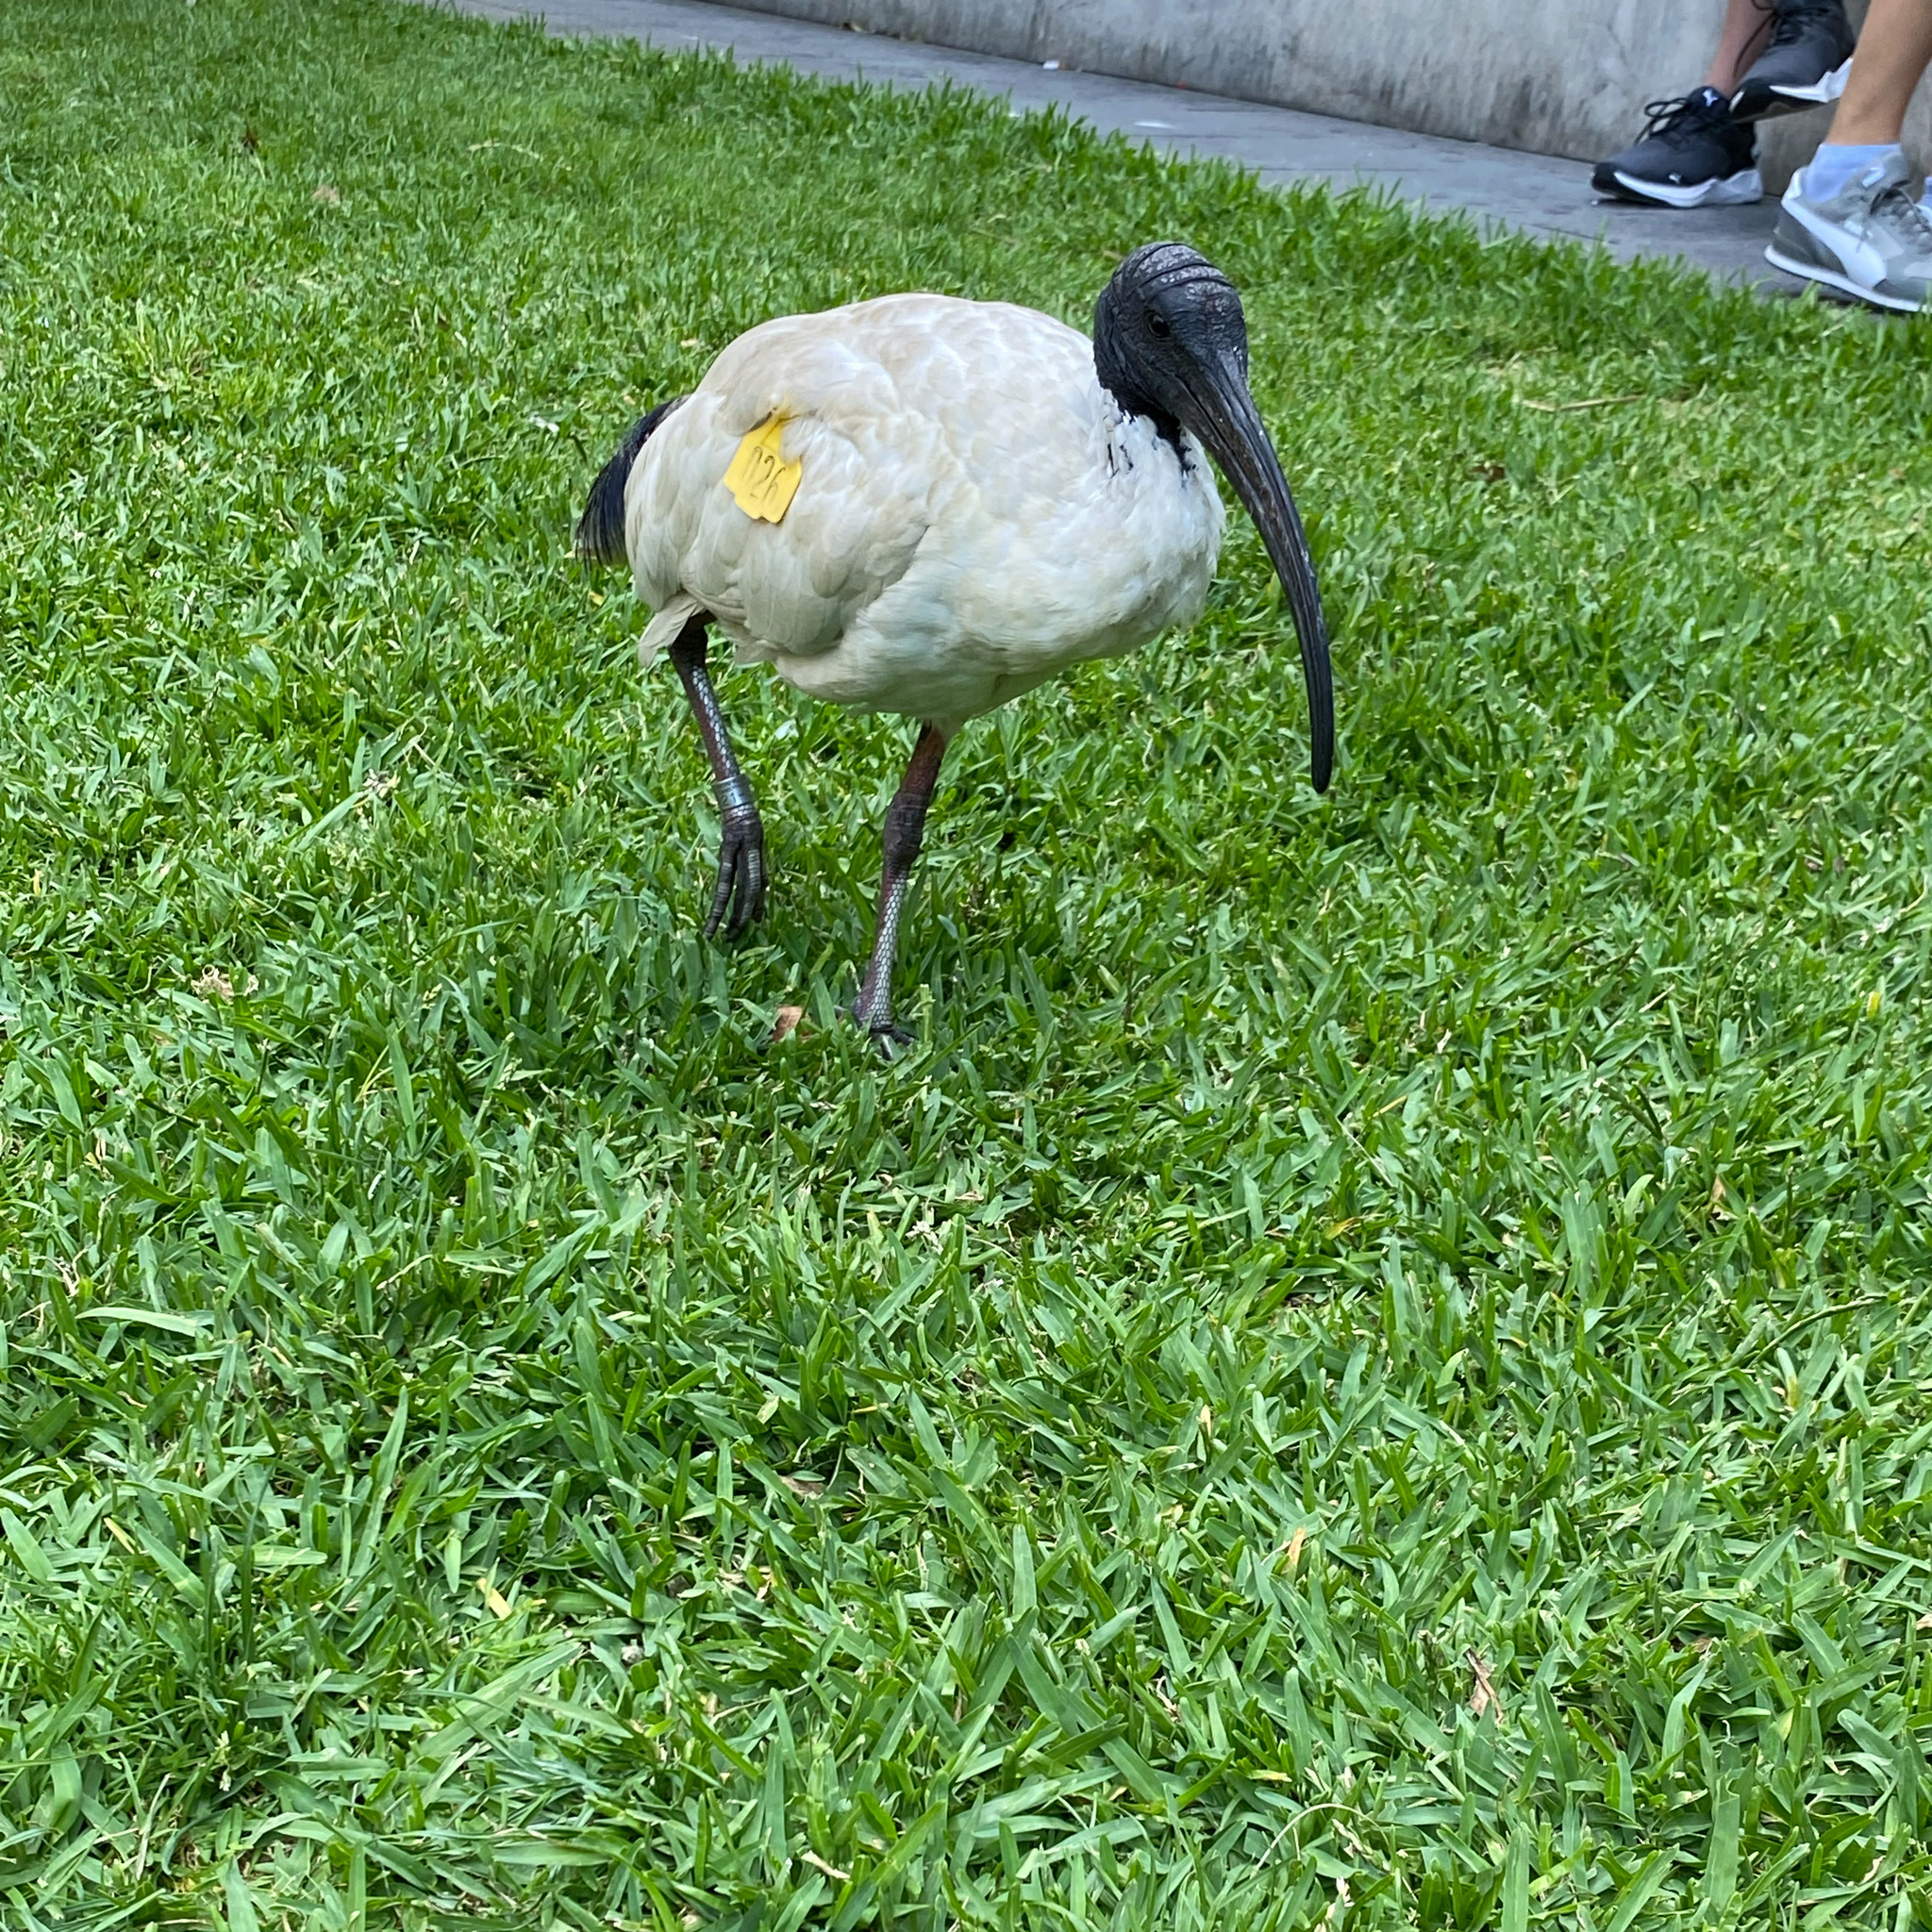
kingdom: Animalia
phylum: Chordata
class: Aves
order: Pelecaniformes
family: Threskiornithidae
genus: Threskiornis
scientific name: Threskiornis molucca
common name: Australian white ibis
